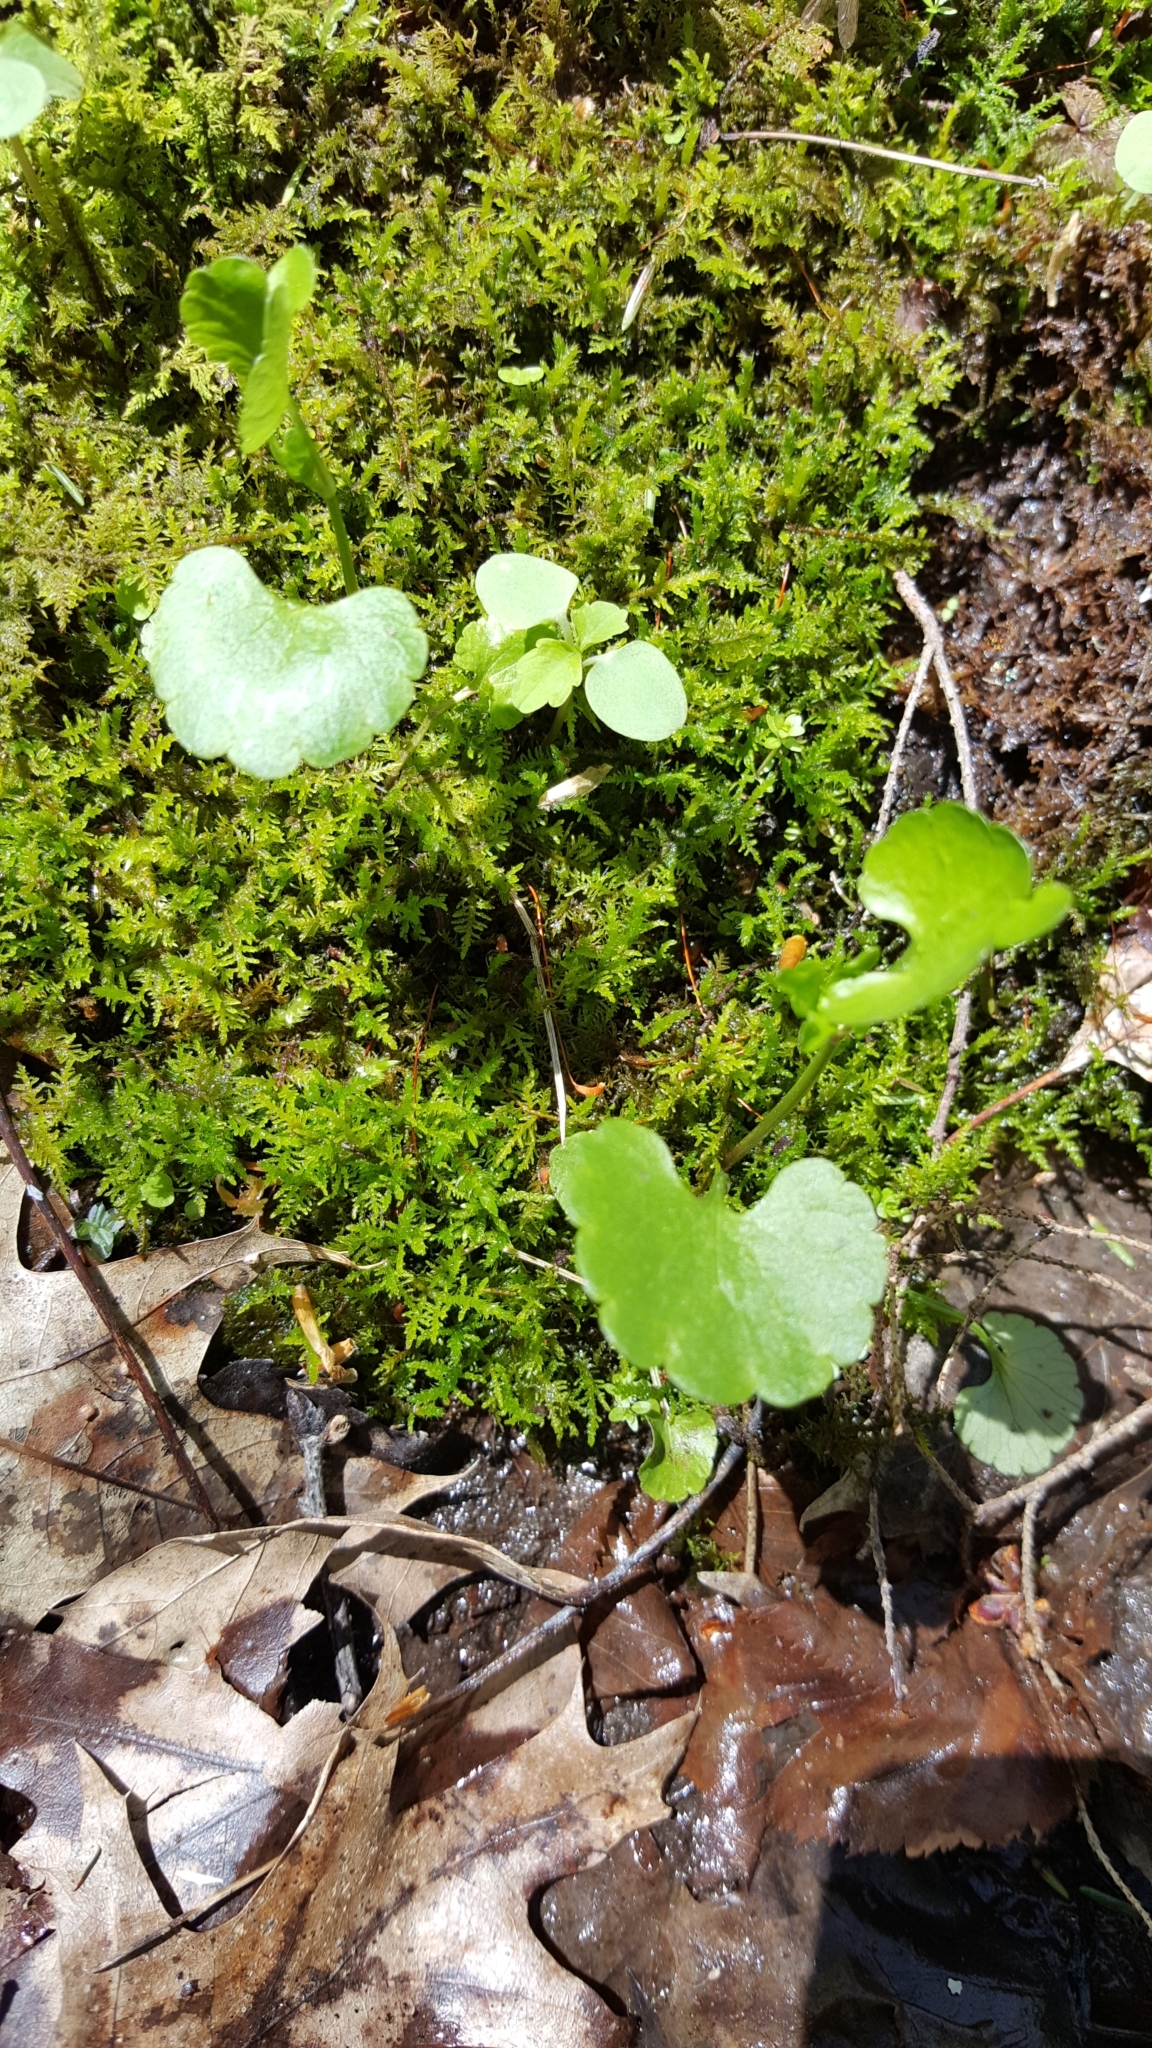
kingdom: Plantae
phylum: Tracheophyta
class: Magnoliopsida
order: Ranunculales
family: Ranunculaceae
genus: Ranunculus
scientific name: Ranunculus abortivus
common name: Early wood buttercup
